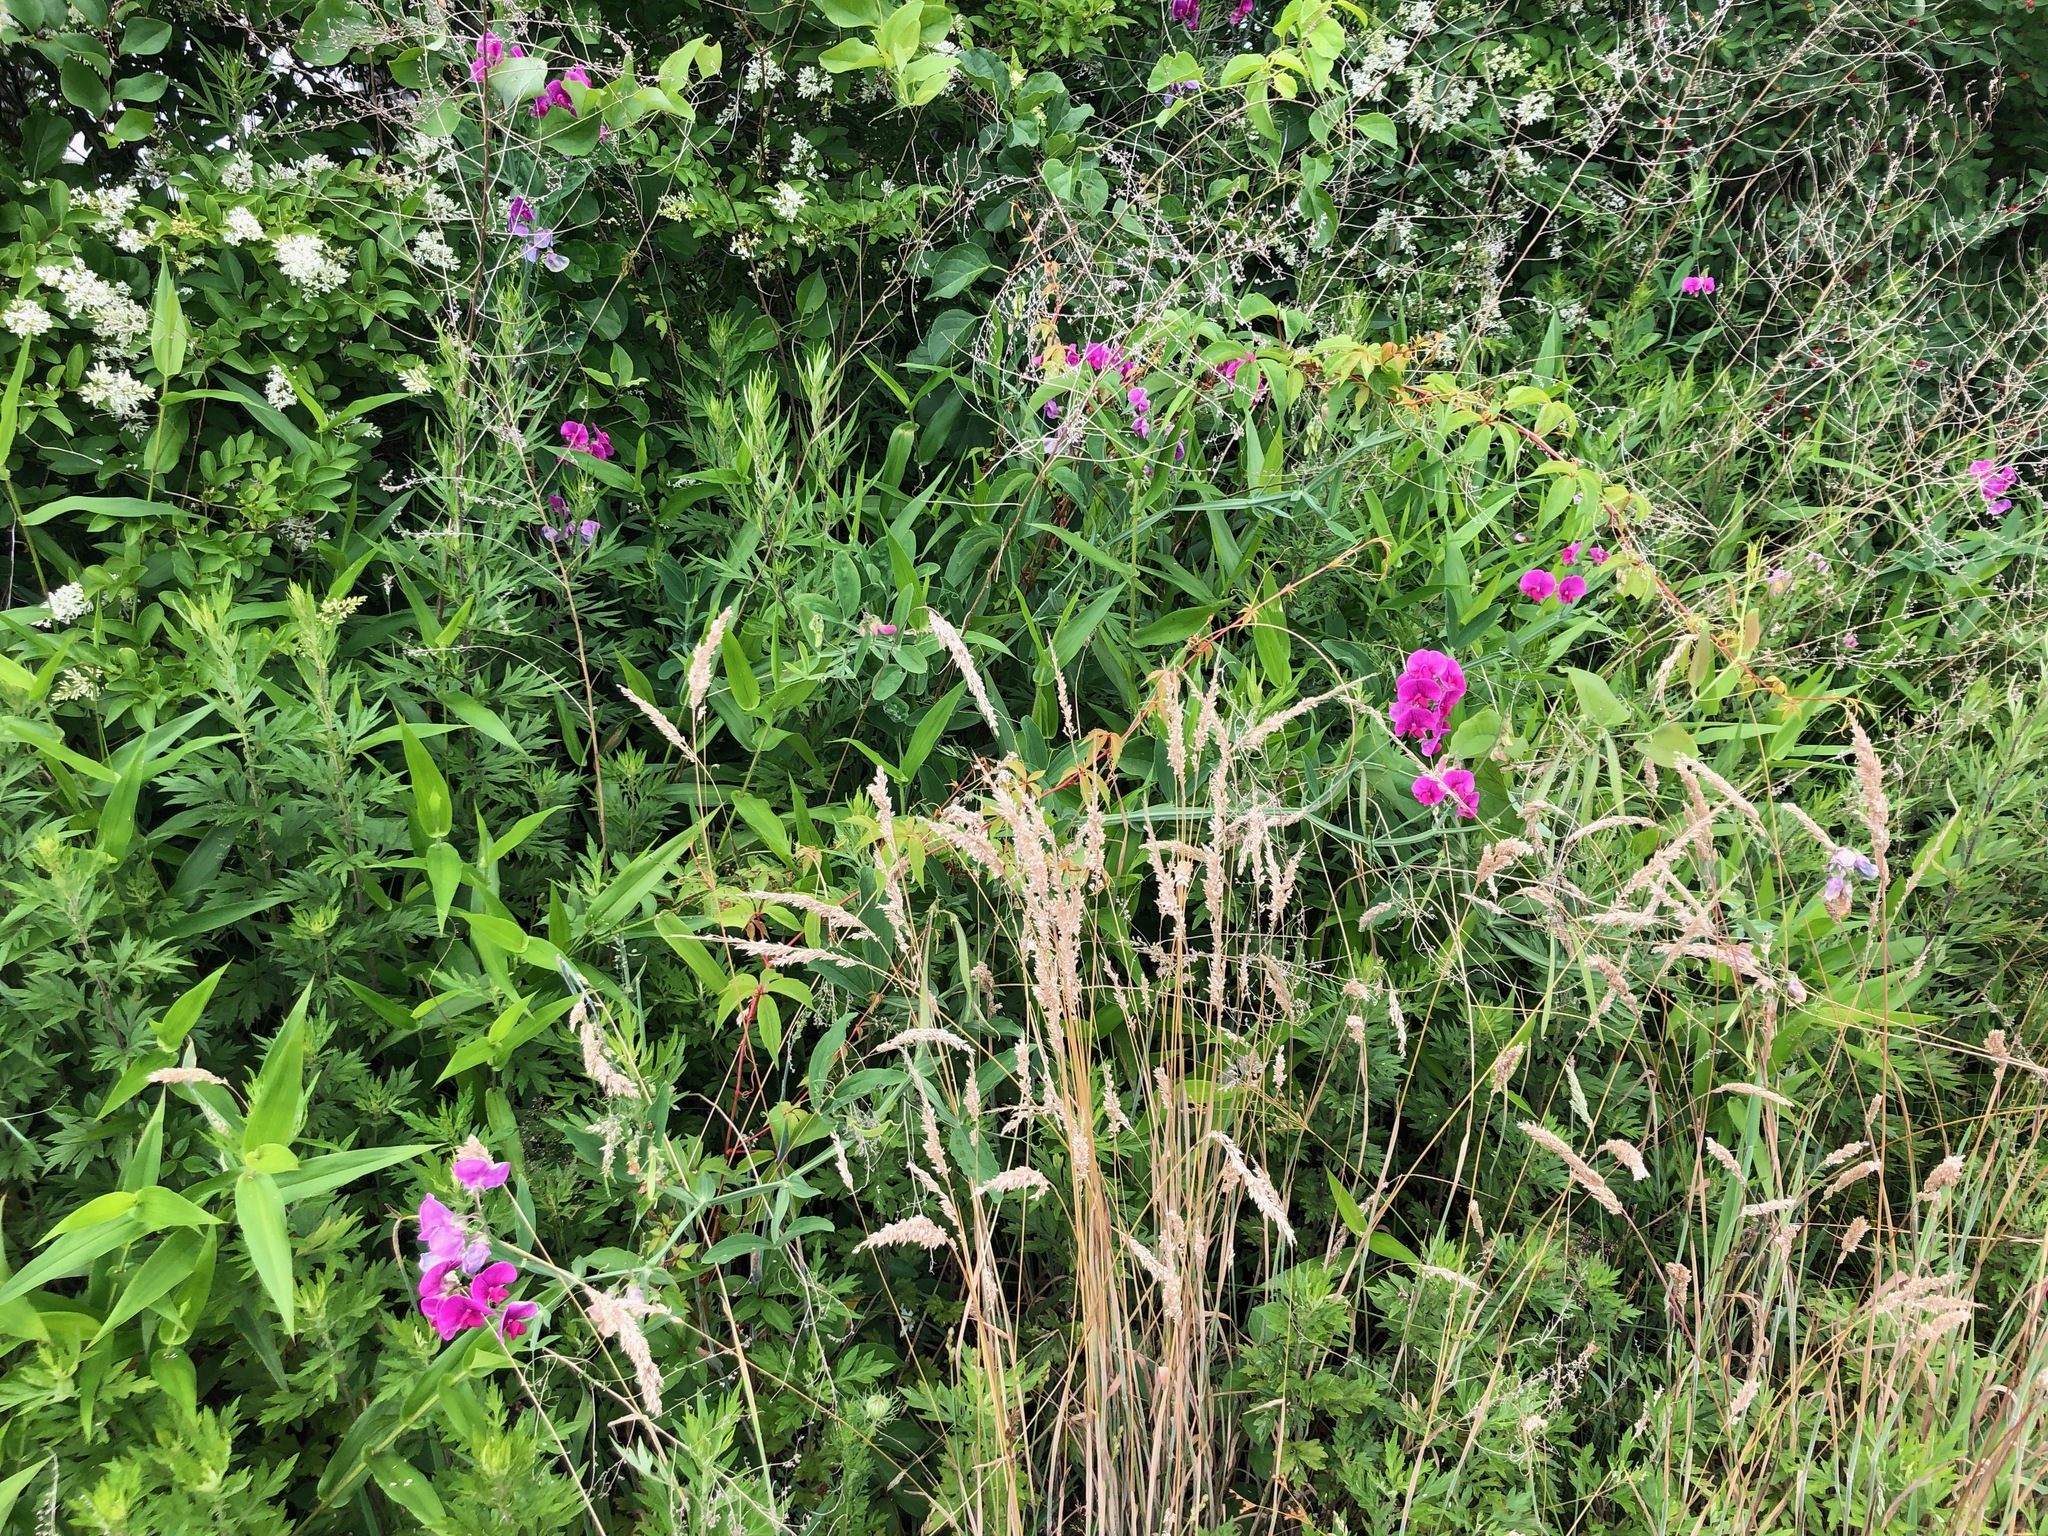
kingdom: Plantae
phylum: Tracheophyta
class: Magnoliopsida
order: Fabales
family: Fabaceae
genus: Lathyrus
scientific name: Lathyrus latifolius
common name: Perennial pea
